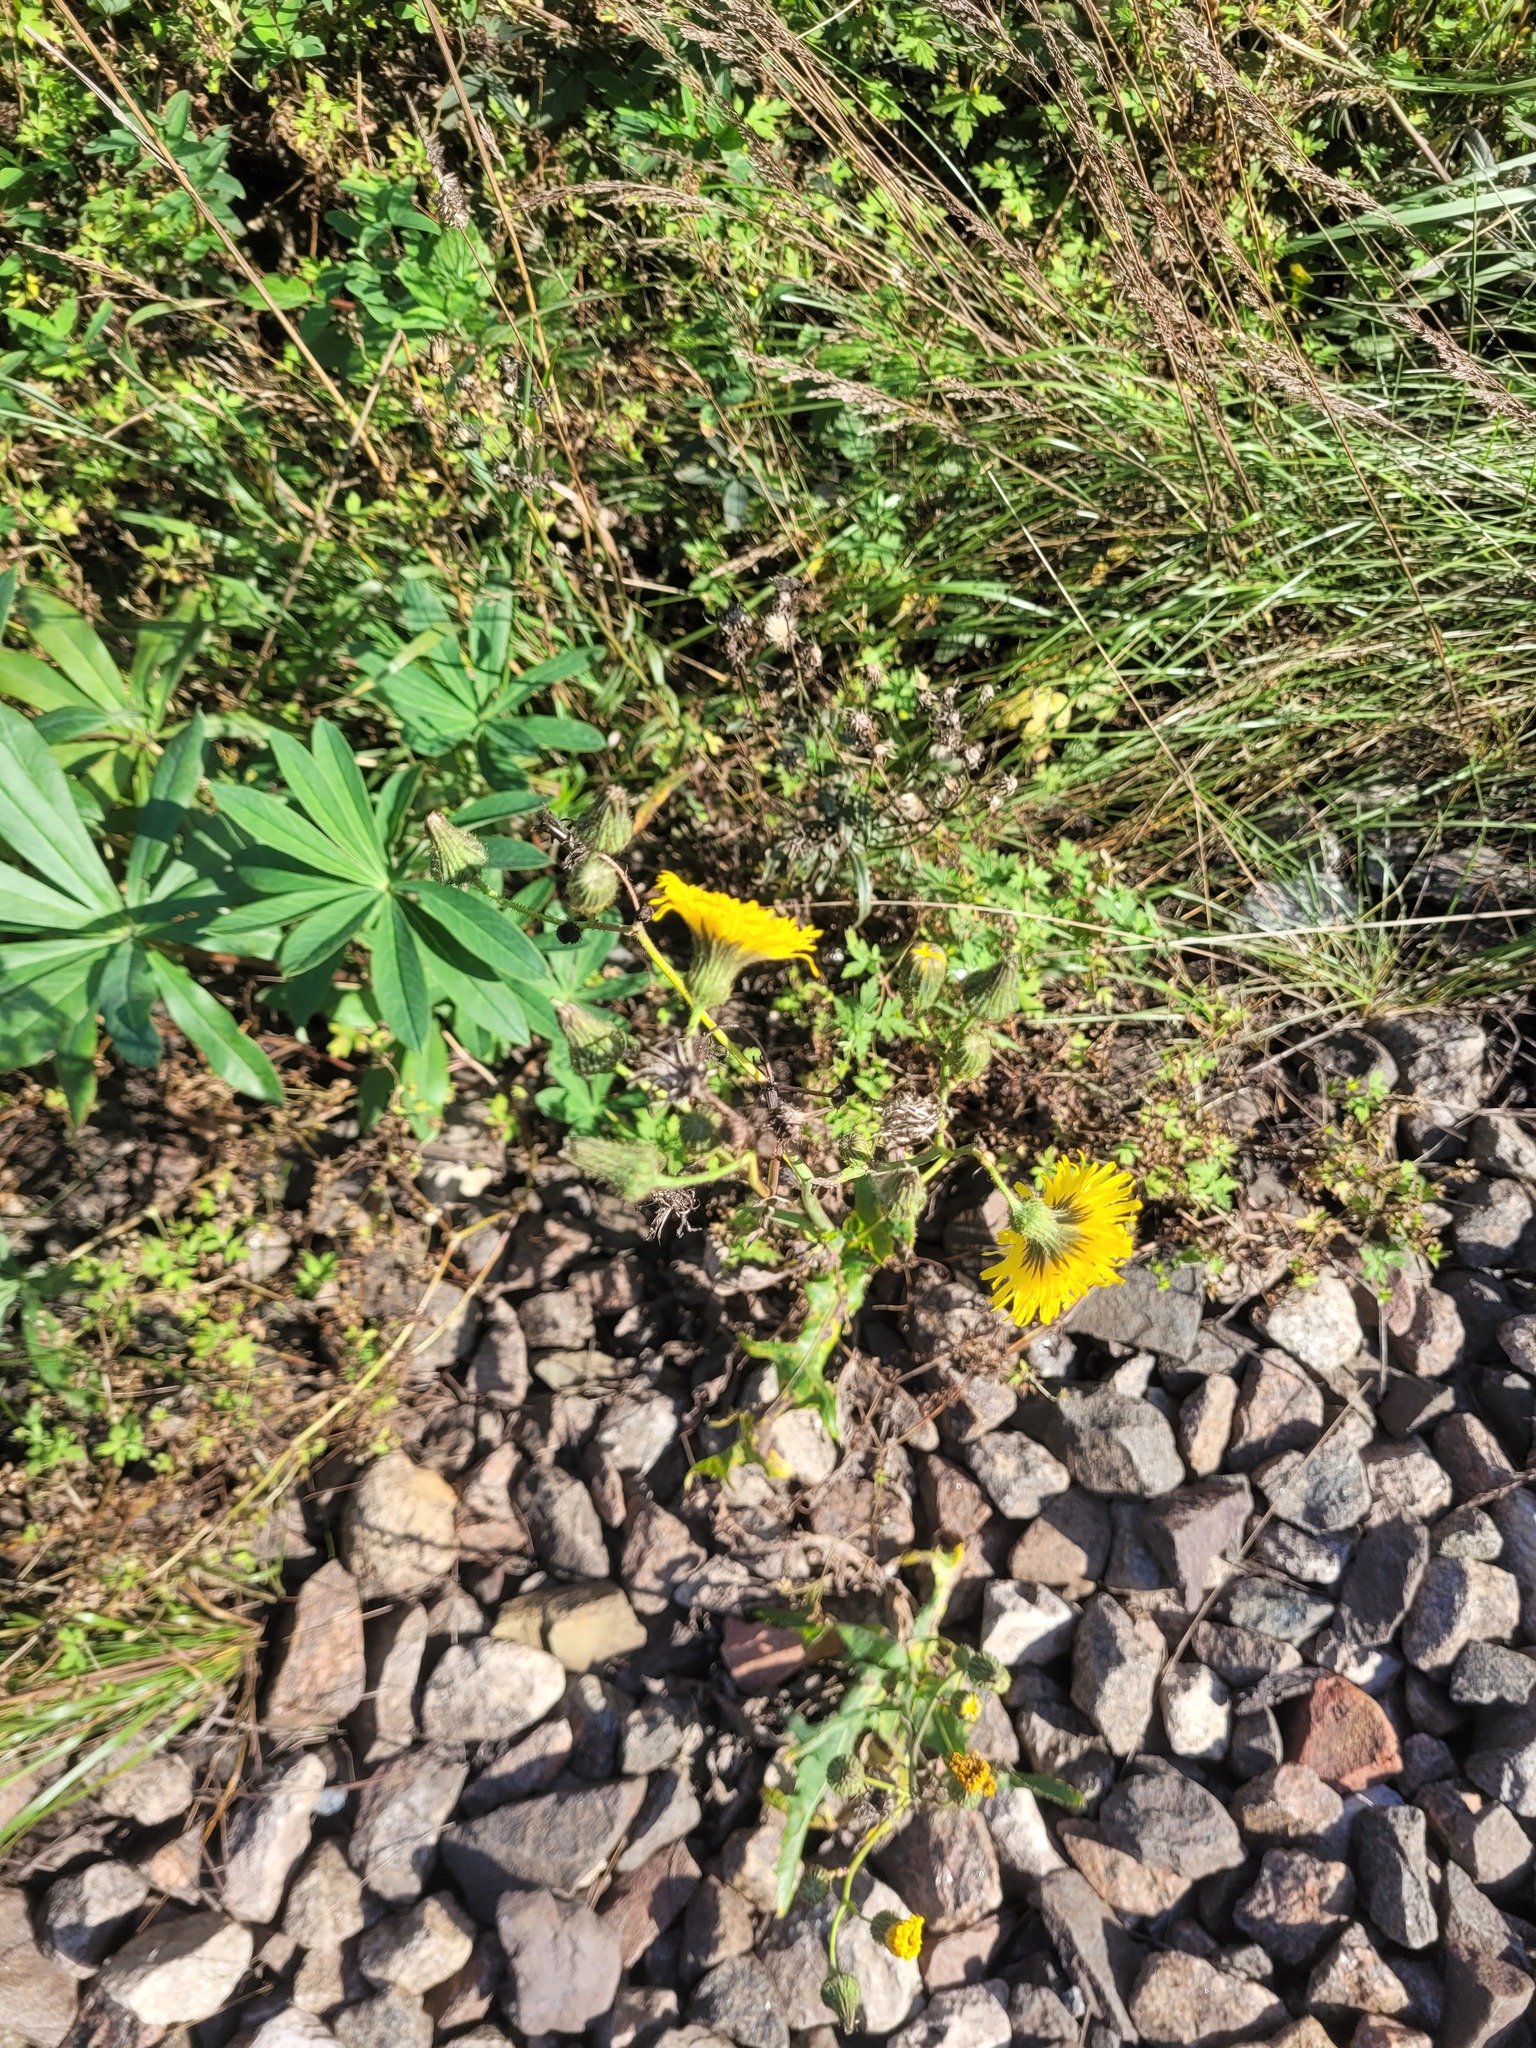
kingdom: Plantae
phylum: Tracheophyta
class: Magnoliopsida
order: Asterales
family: Asteraceae
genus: Sonchus
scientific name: Sonchus arvensis
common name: Perennial sow-thistle
